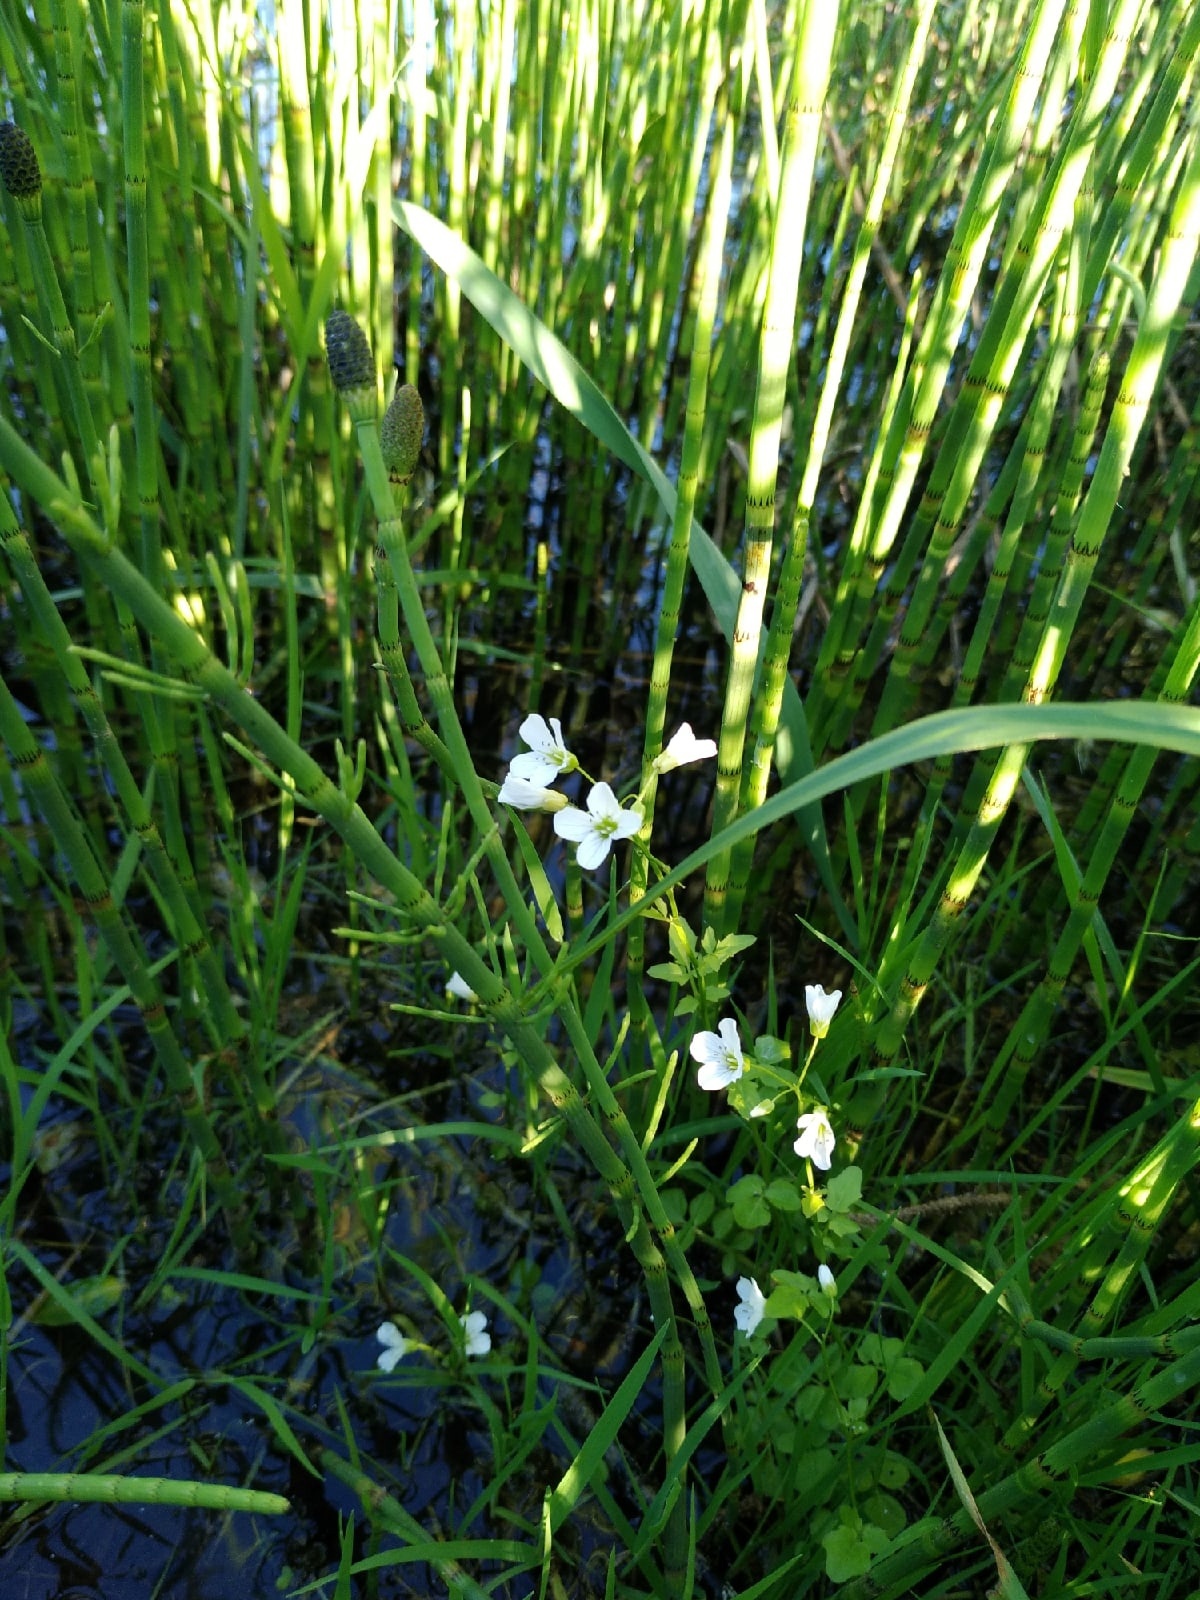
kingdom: Plantae
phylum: Tracheophyta
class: Magnoliopsida
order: Brassicales
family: Brassicaceae
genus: Cardamine
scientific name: Cardamine amara
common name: Large bitter-cress
